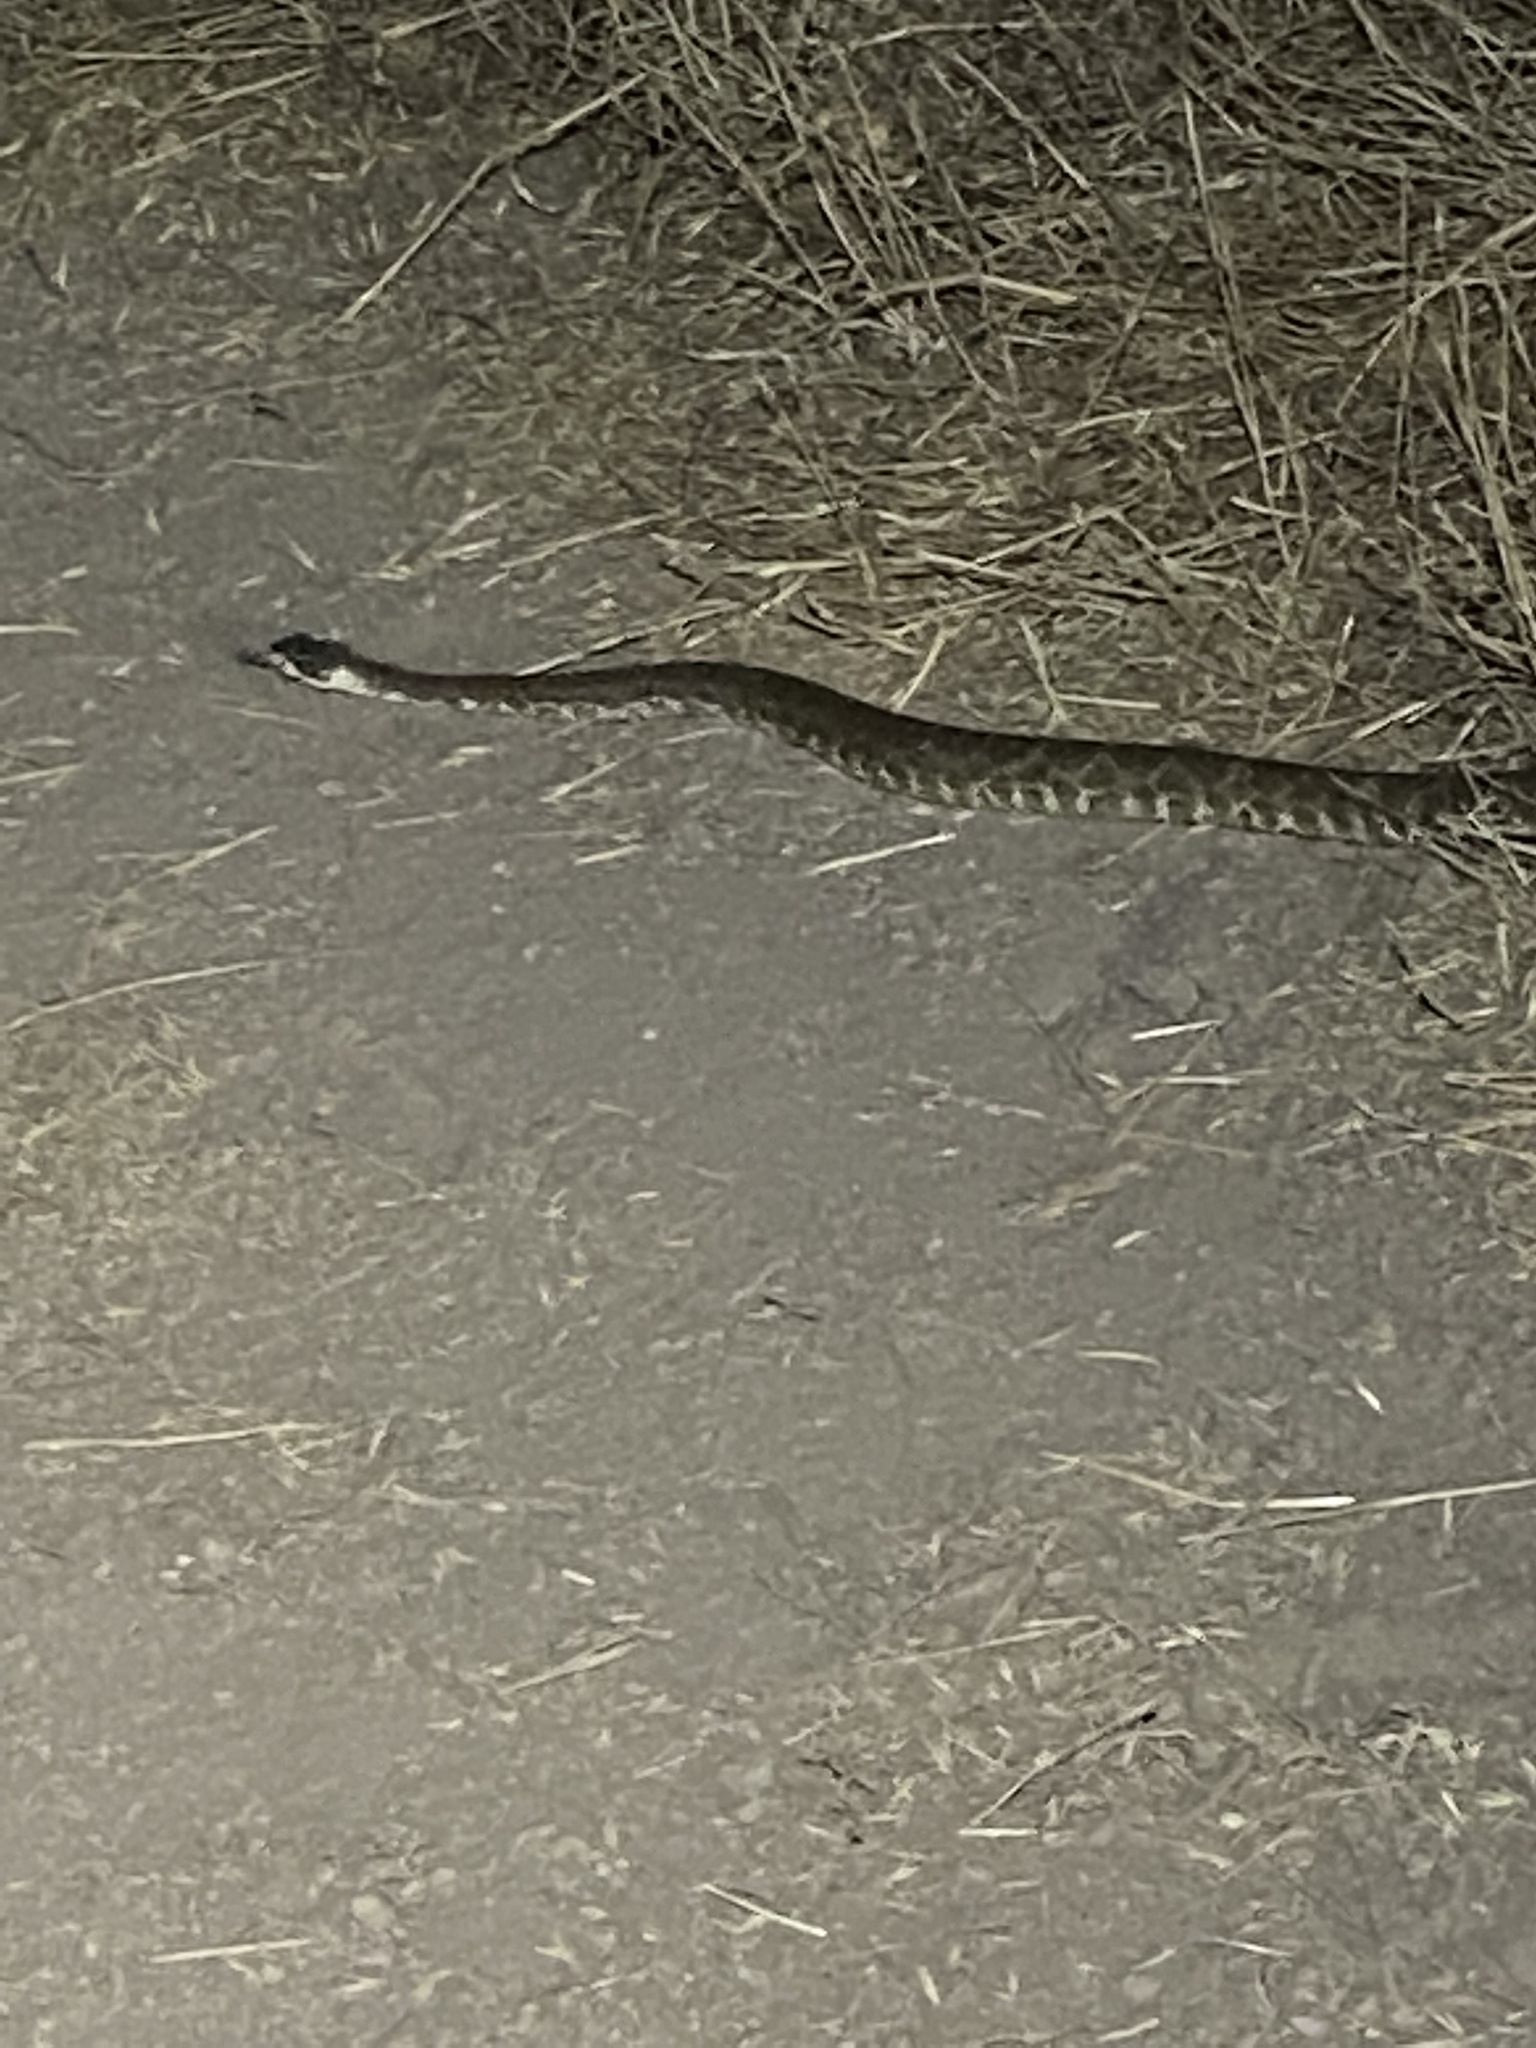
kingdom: Animalia
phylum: Chordata
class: Squamata
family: Viperidae
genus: Crotalus
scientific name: Crotalus oreganus
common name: Abyssus
